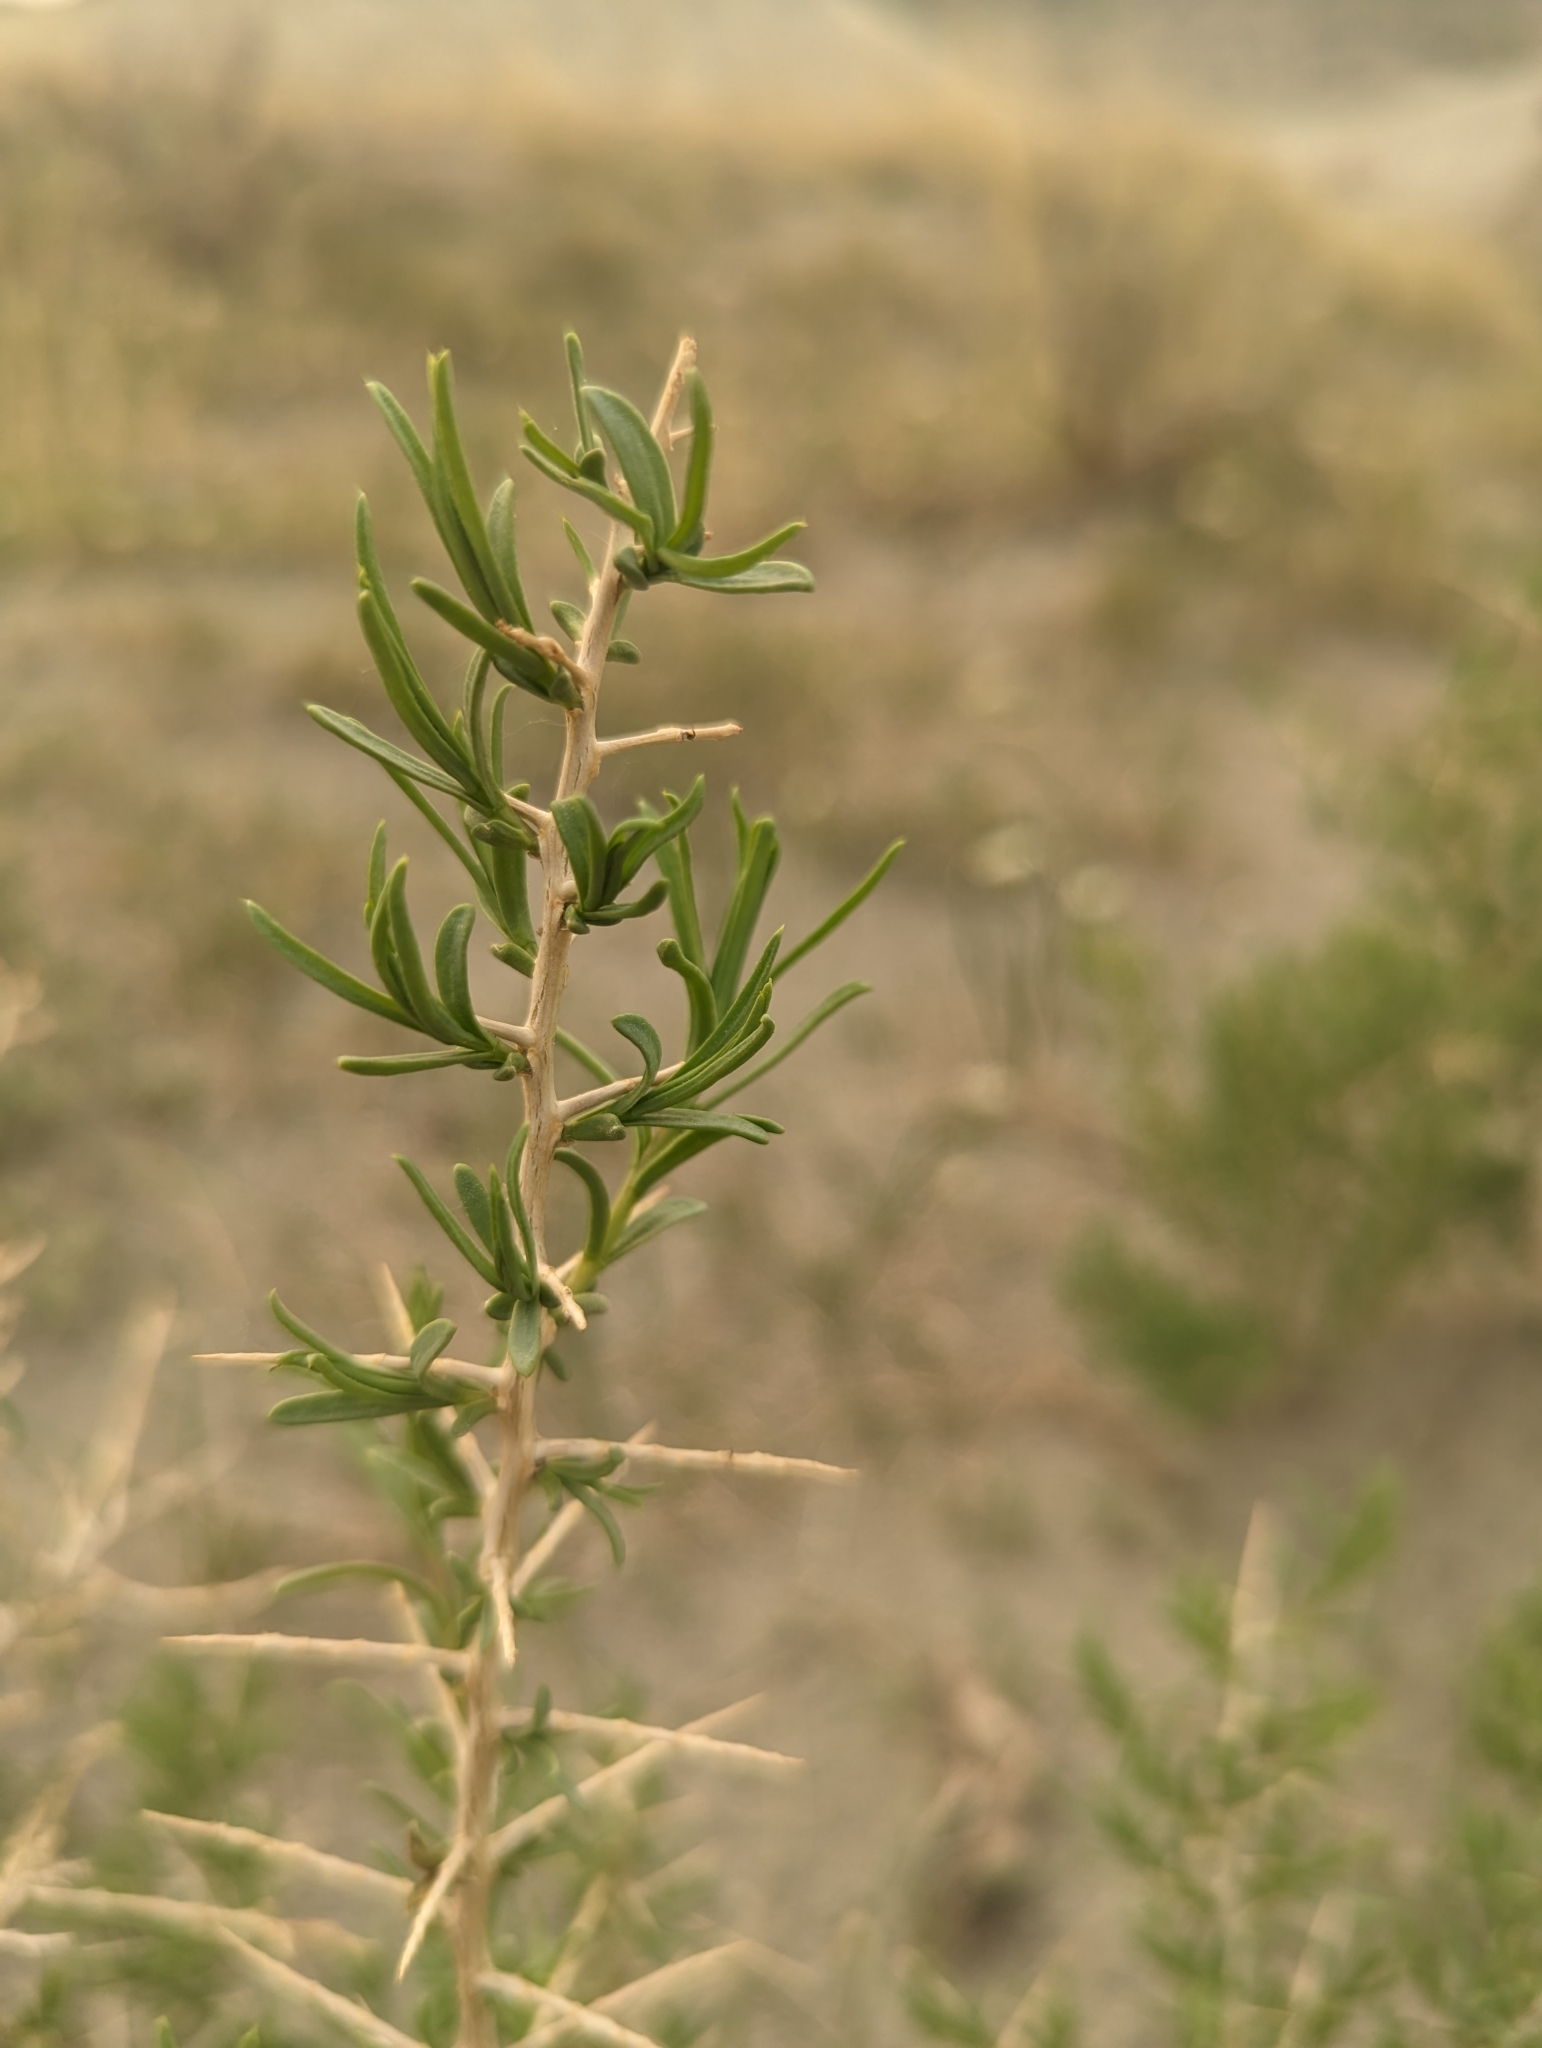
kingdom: Plantae
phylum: Tracheophyta
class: Magnoliopsida
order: Caryophyllales
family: Sarcobataceae
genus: Sarcobatus
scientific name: Sarcobatus vermiculatus
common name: Greasewood
